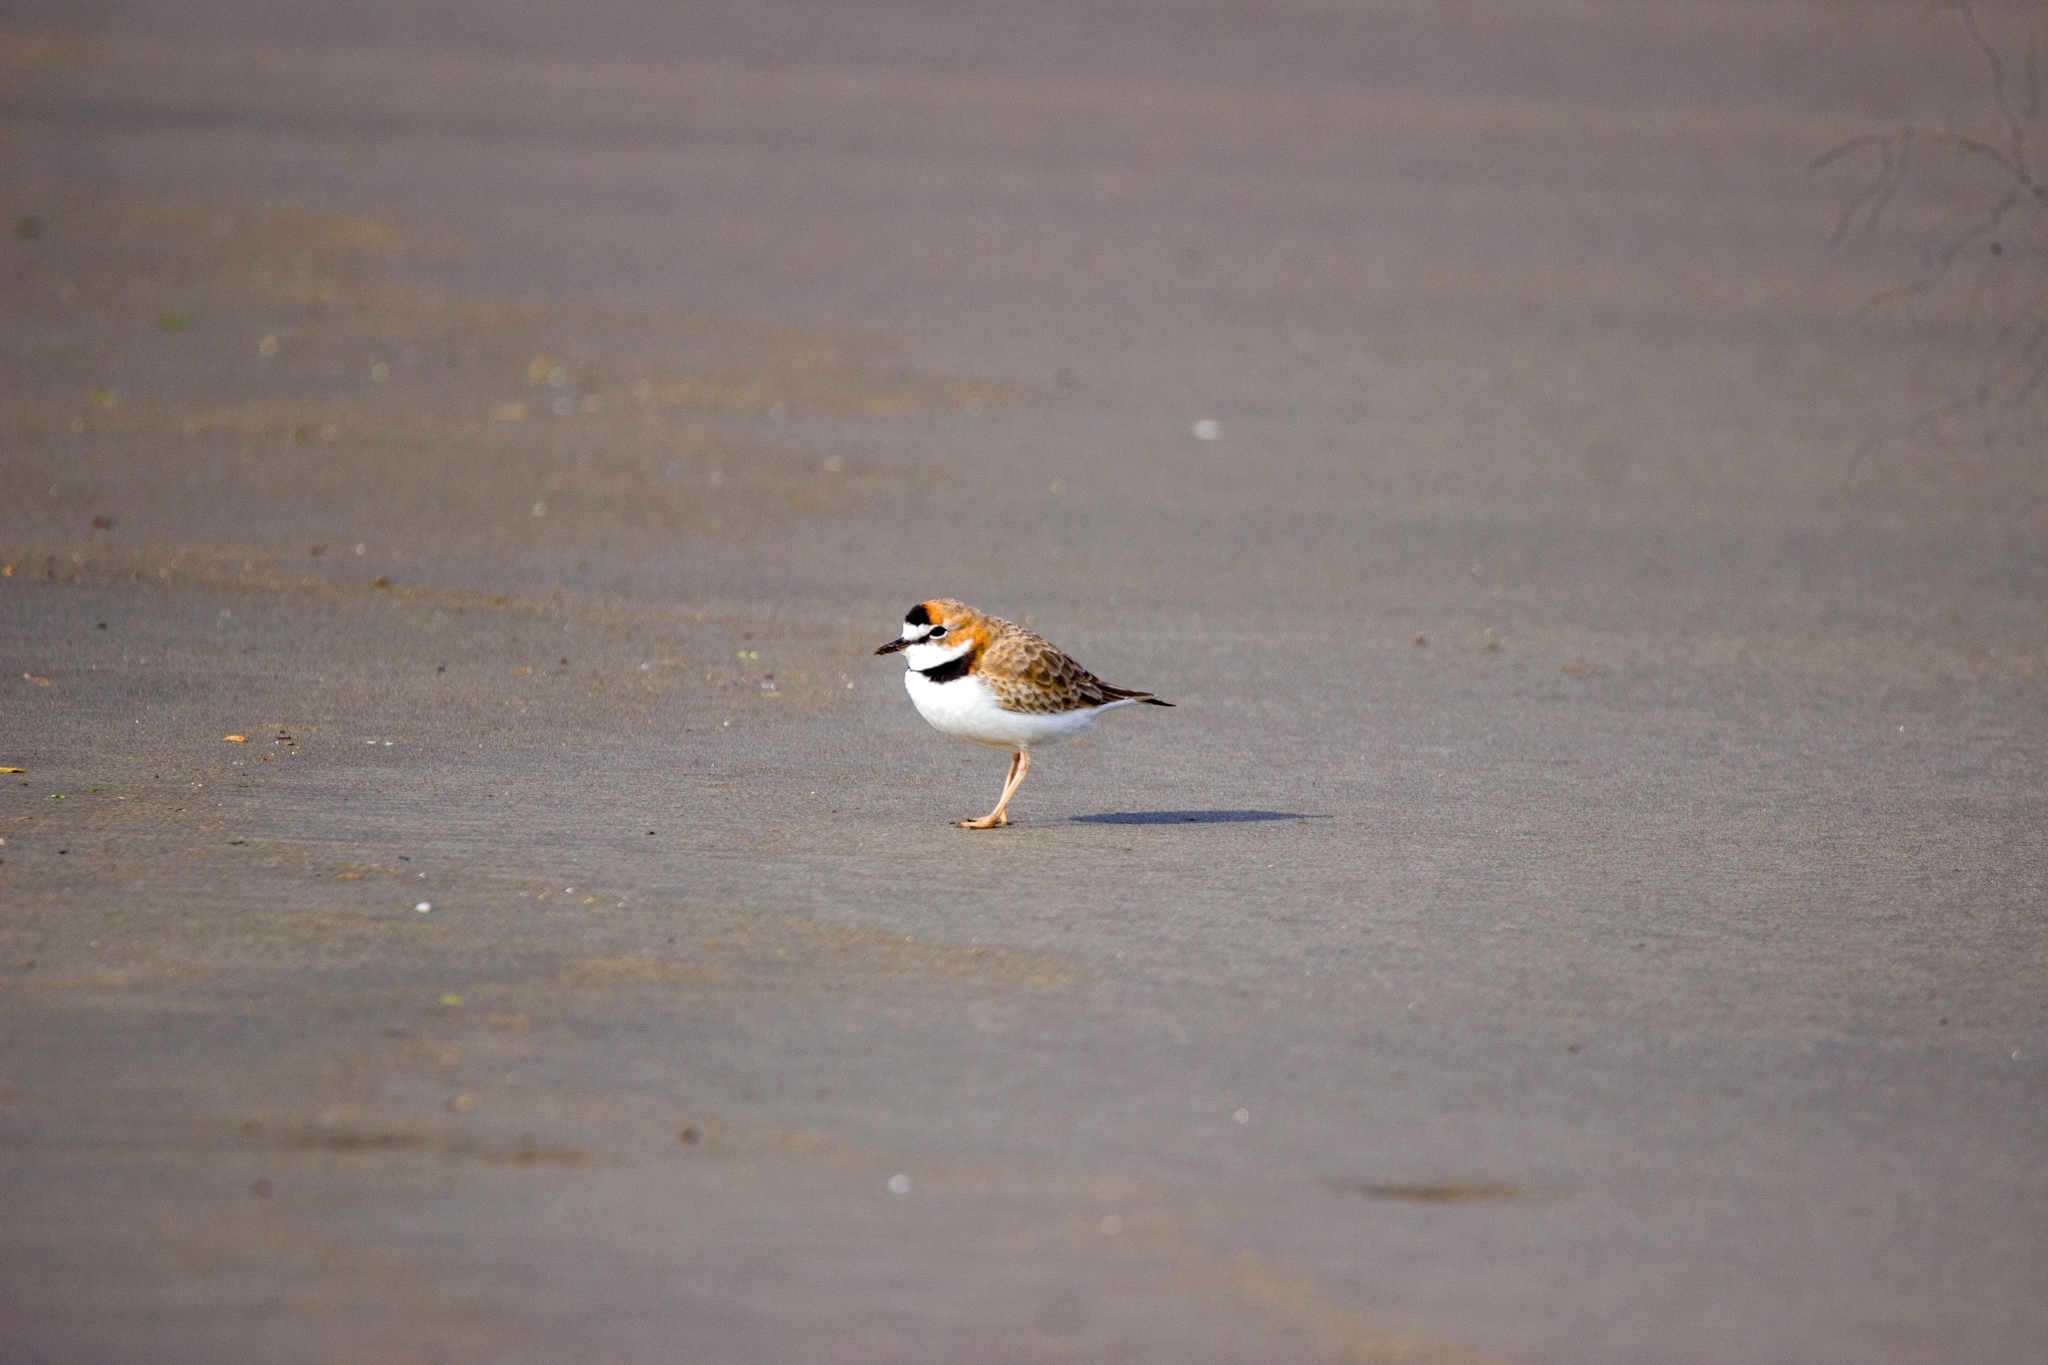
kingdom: Animalia
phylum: Chordata
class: Aves
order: Charadriiformes
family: Charadriidae
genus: Anarhynchus
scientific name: Anarhynchus
